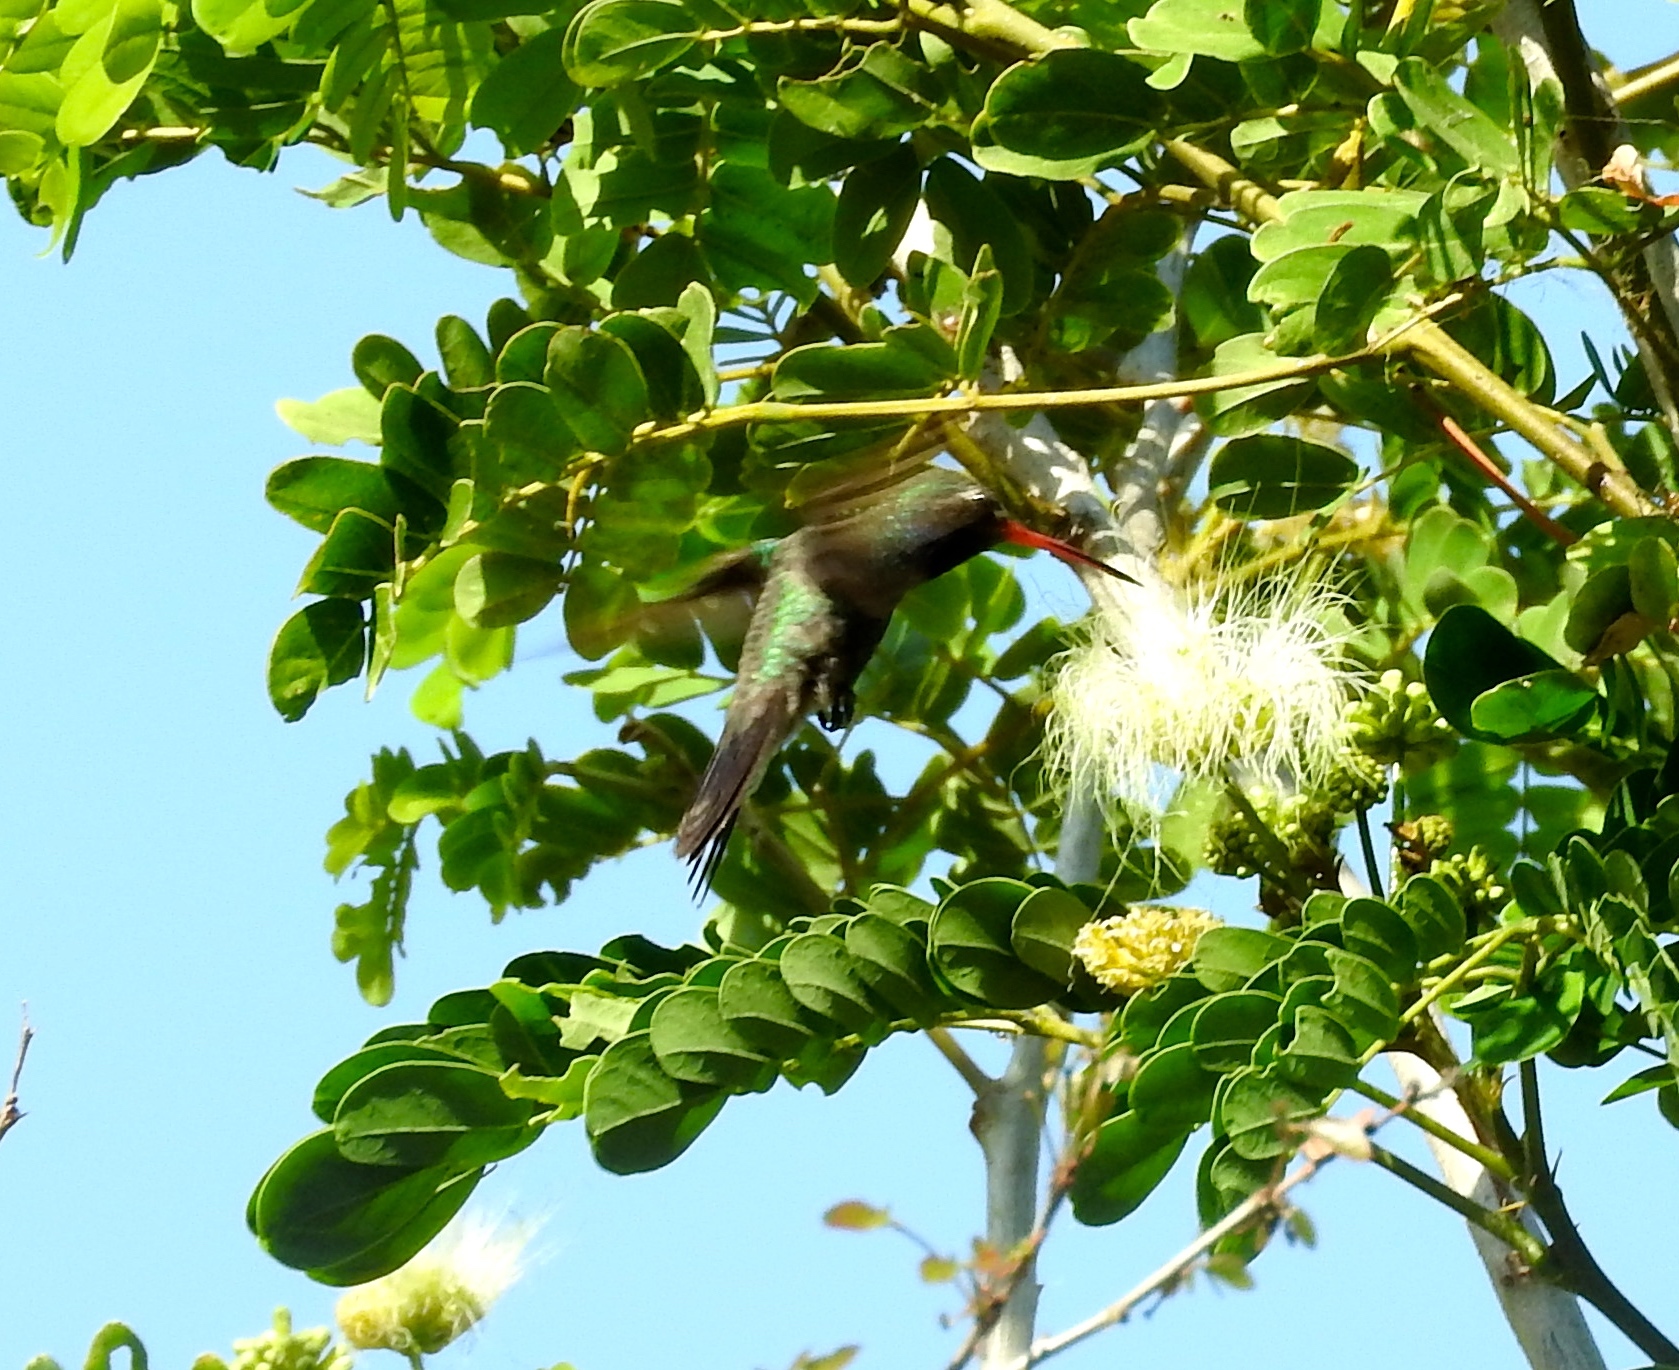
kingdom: Animalia
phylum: Chordata
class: Aves
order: Apodiformes
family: Trochilidae
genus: Cynanthus
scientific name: Cynanthus latirostris
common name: Broad-billed hummingbird
